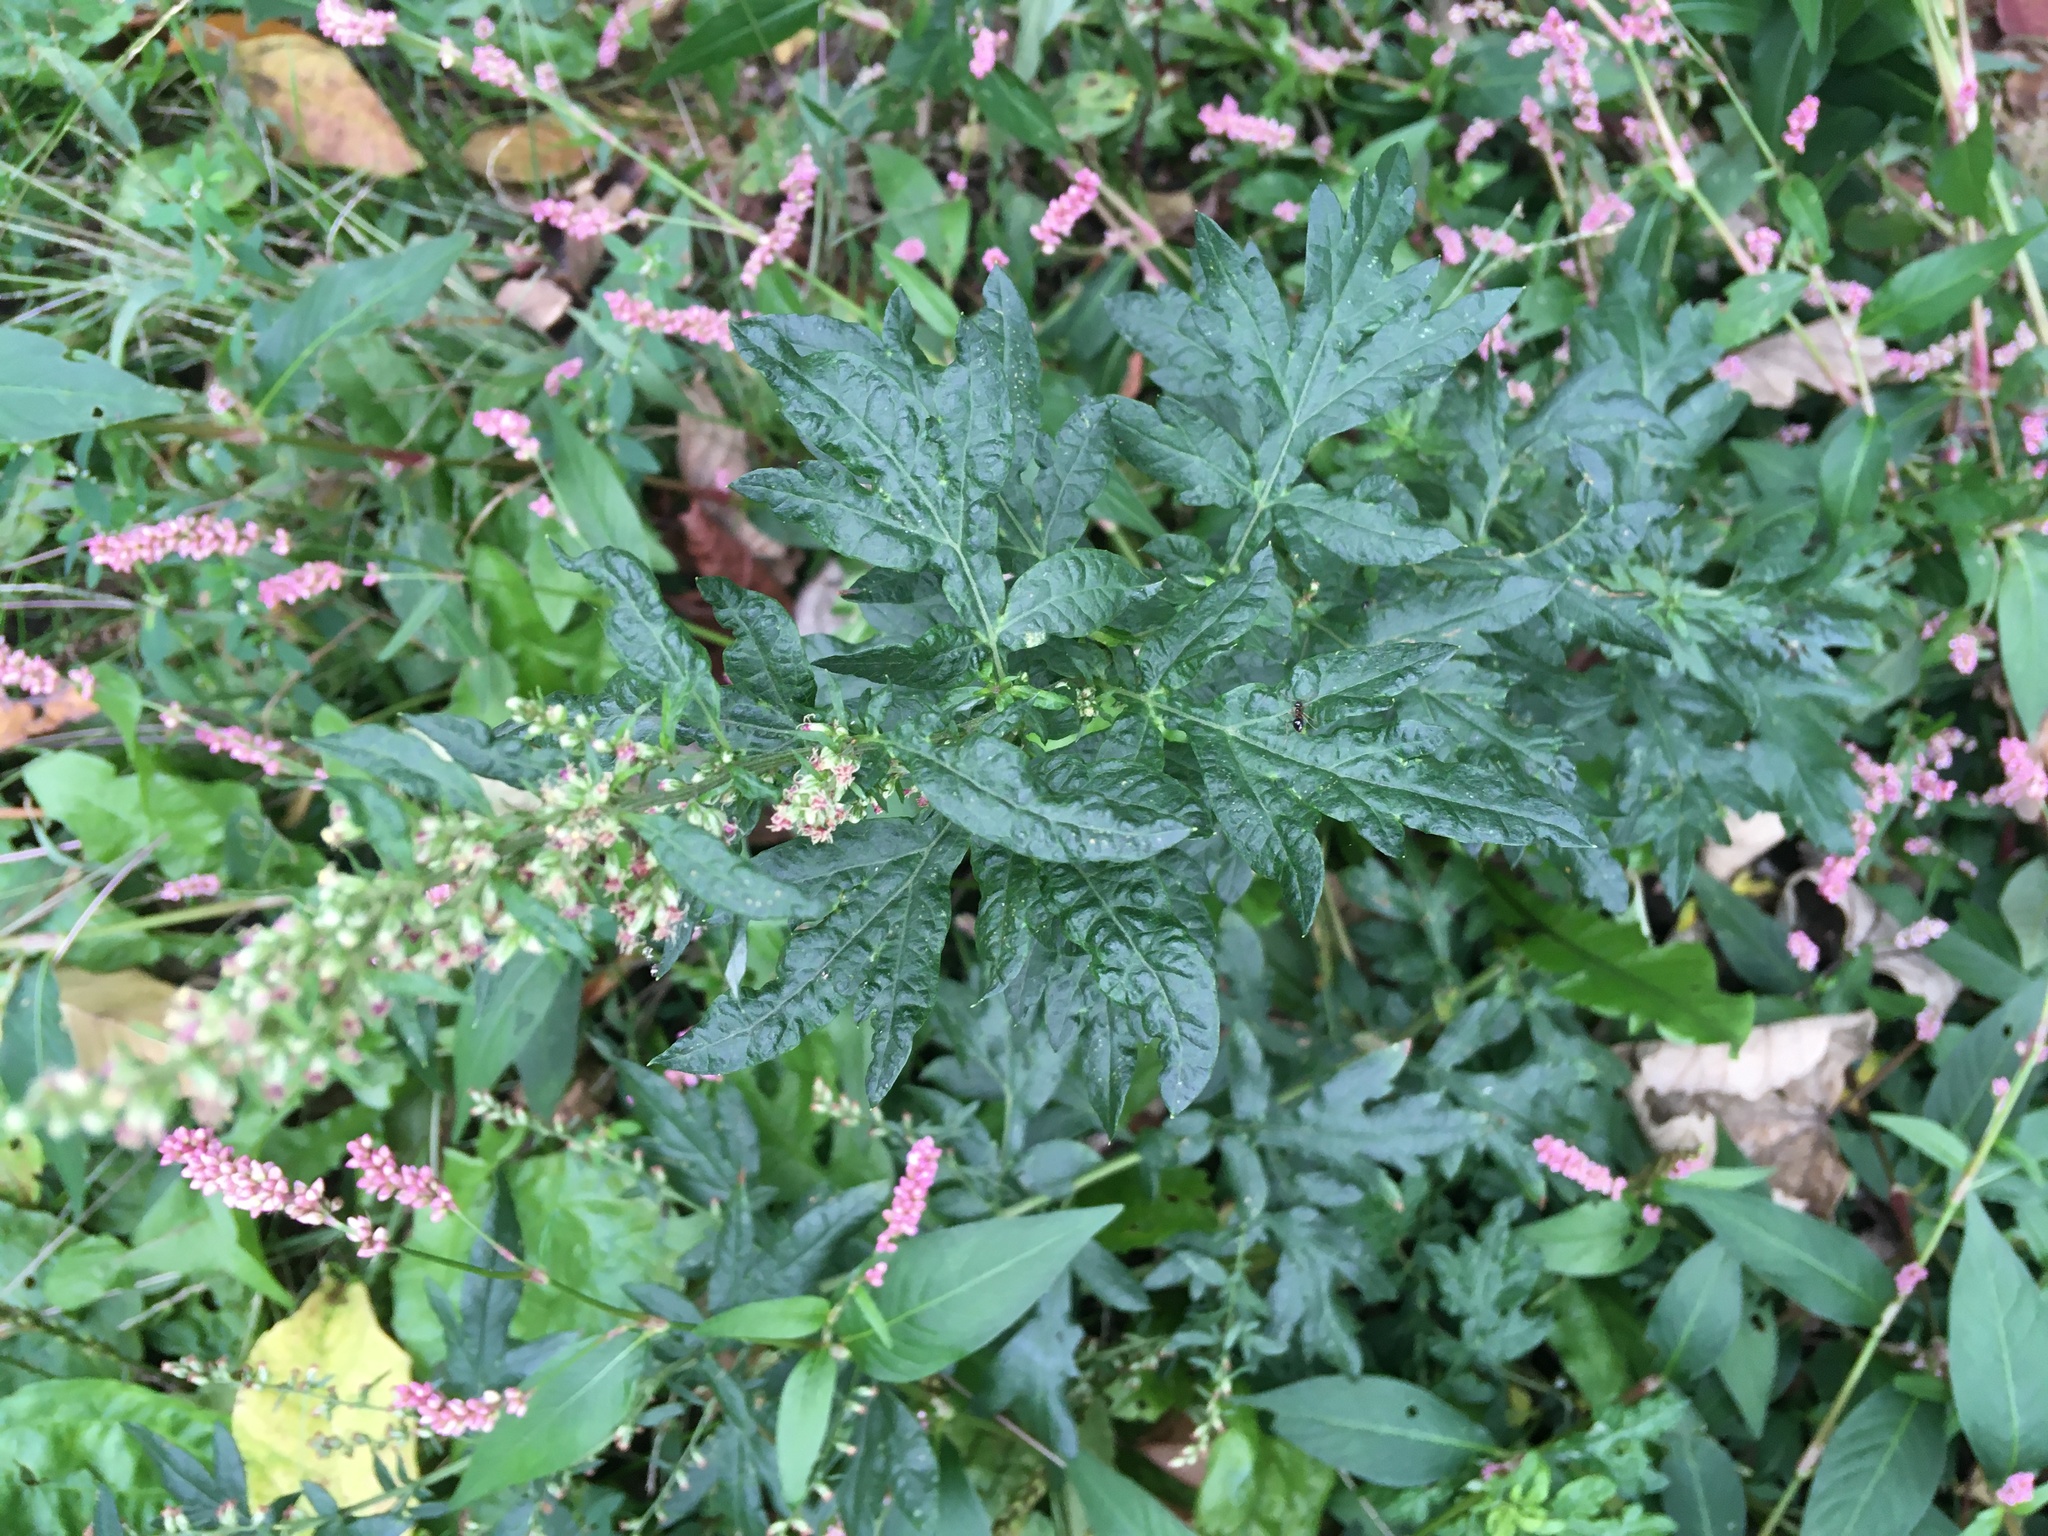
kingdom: Plantae
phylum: Tracheophyta
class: Magnoliopsida
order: Asterales
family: Asteraceae
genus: Artemisia
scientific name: Artemisia vulgaris
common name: Mugwort
